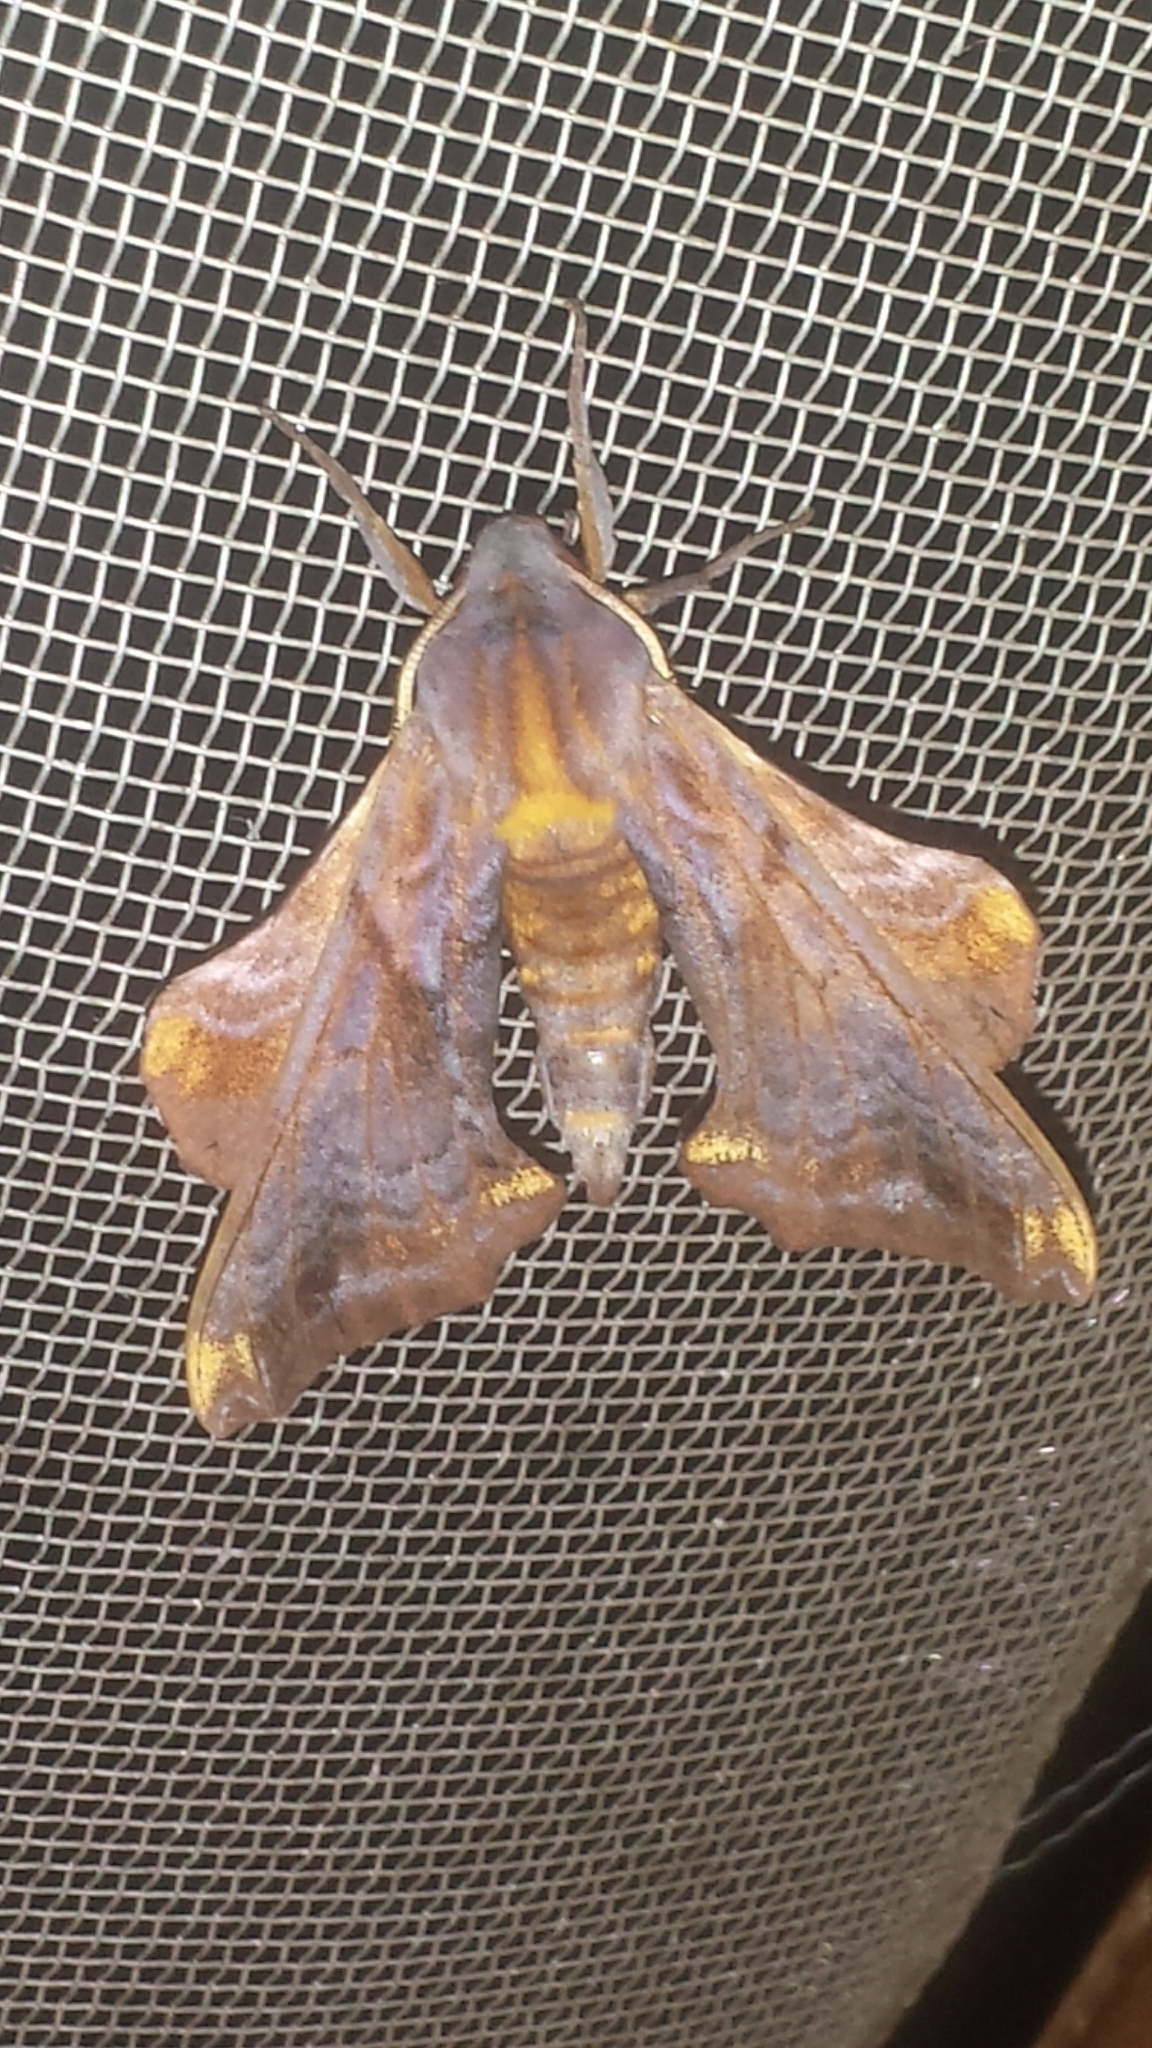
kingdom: Animalia
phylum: Arthropoda
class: Insecta
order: Lepidoptera
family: Sphingidae
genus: Paonias
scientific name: Paonias myops
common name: Small-eyed sphinx
